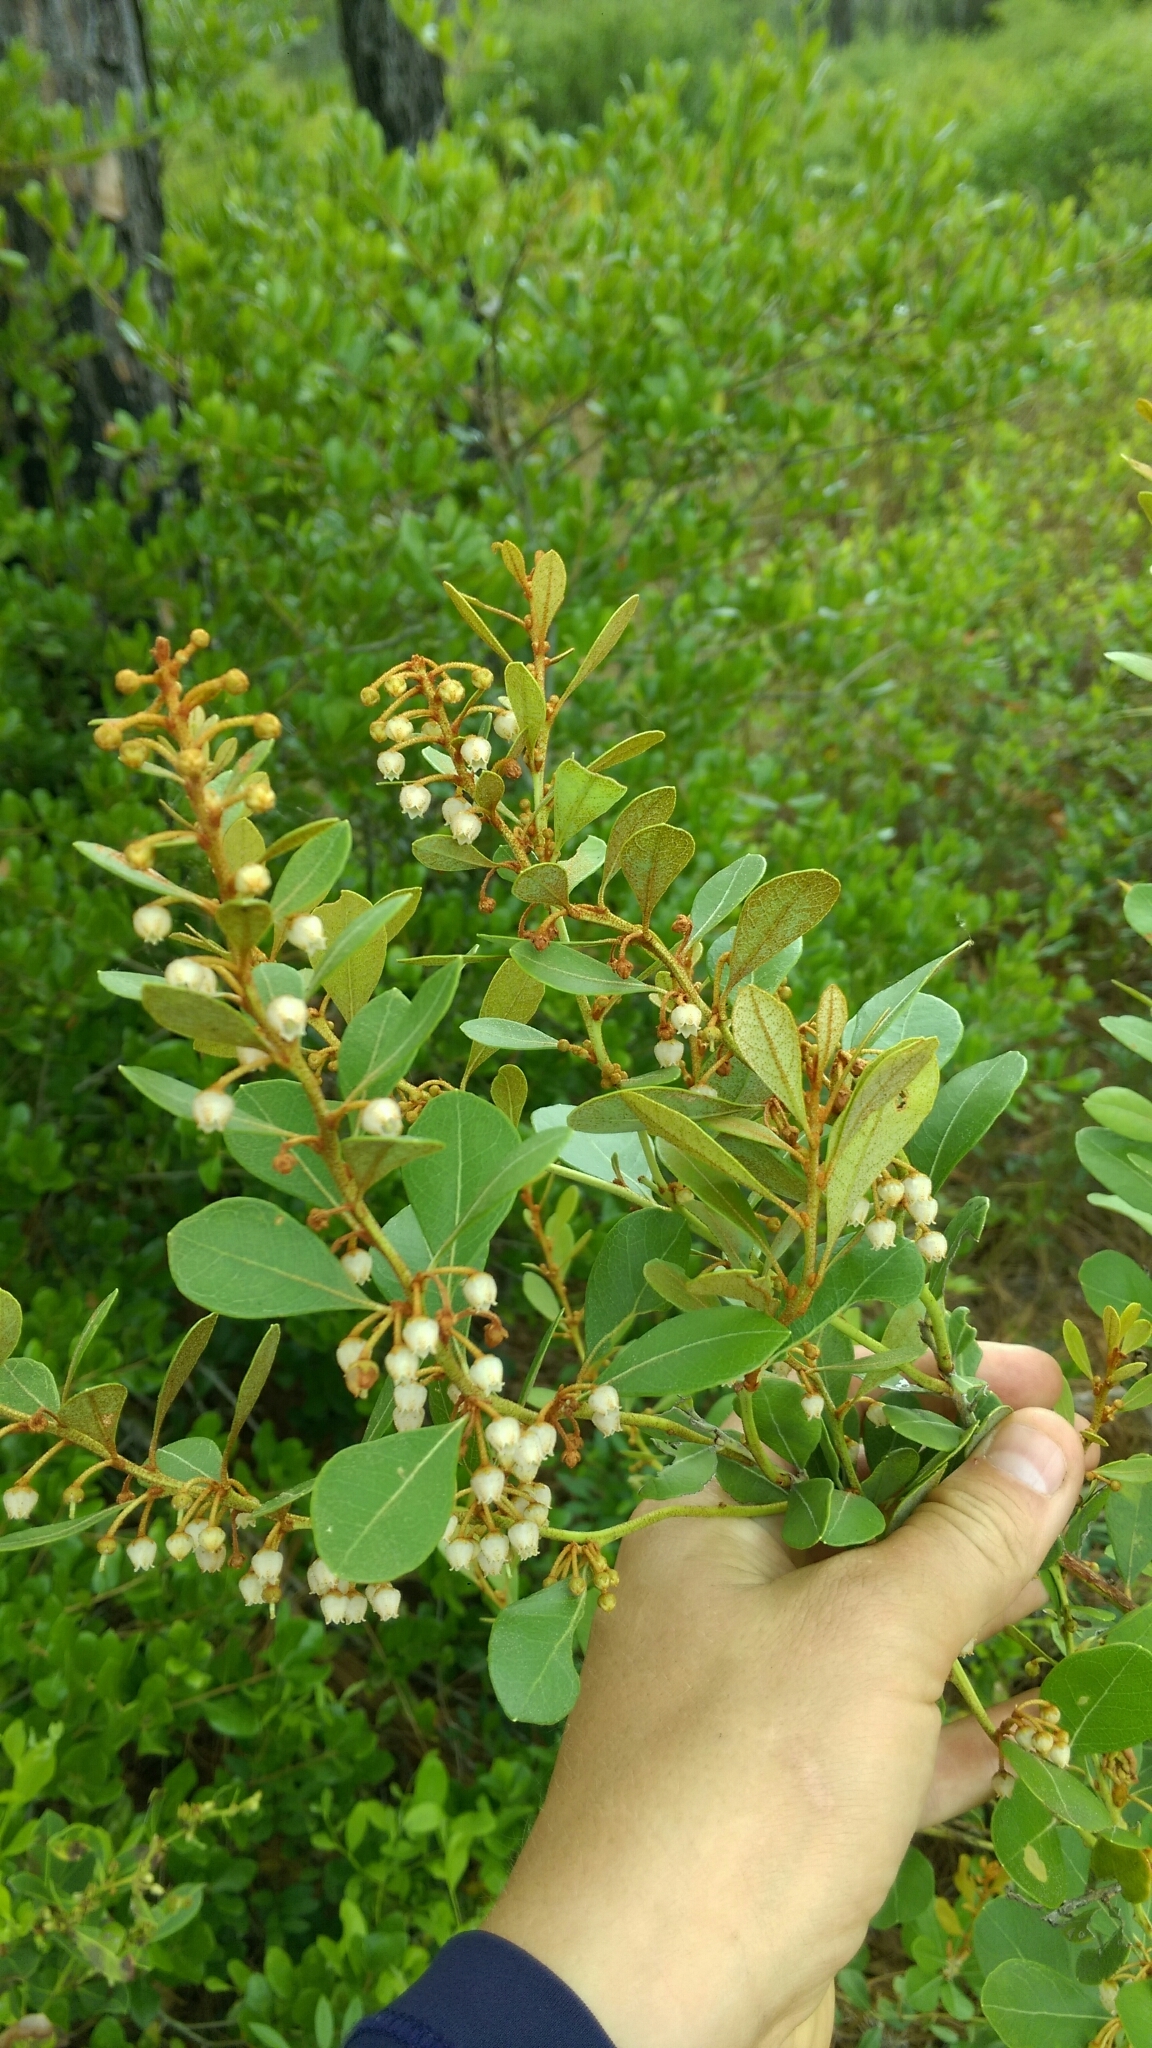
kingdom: Plantae
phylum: Tracheophyta
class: Magnoliopsida
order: Ericales
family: Ericaceae
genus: Lyonia
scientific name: Lyonia fruticosa
